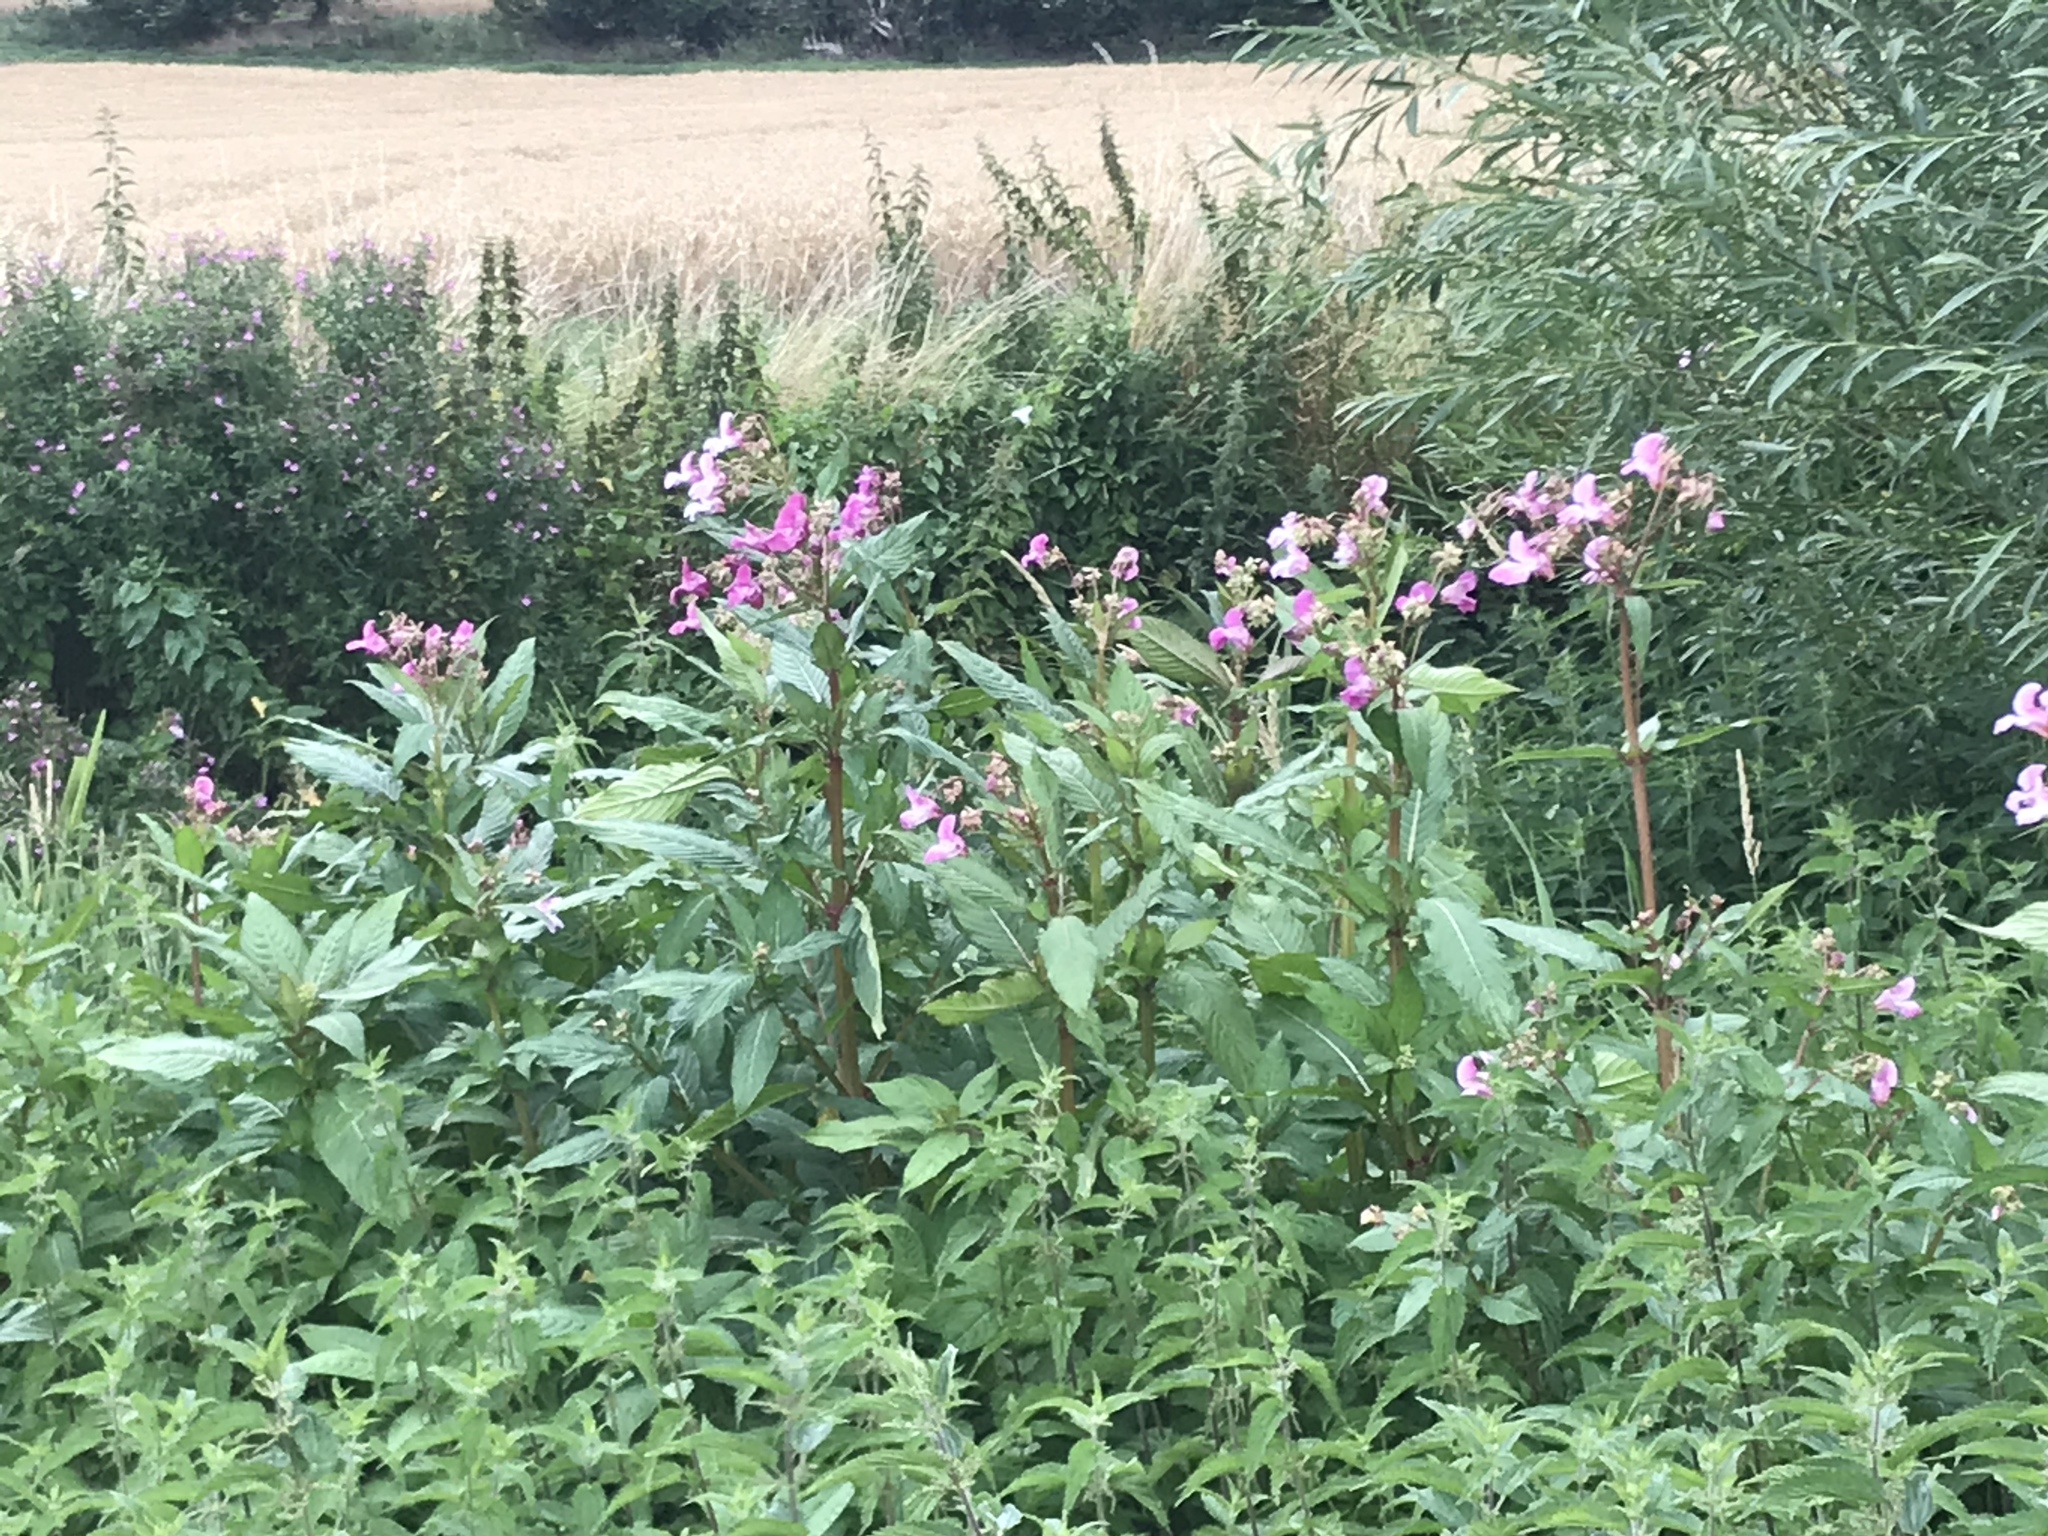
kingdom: Plantae
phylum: Tracheophyta
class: Magnoliopsida
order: Ericales
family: Balsaminaceae
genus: Impatiens
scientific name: Impatiens glandulifera
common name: Himalayan balsam
